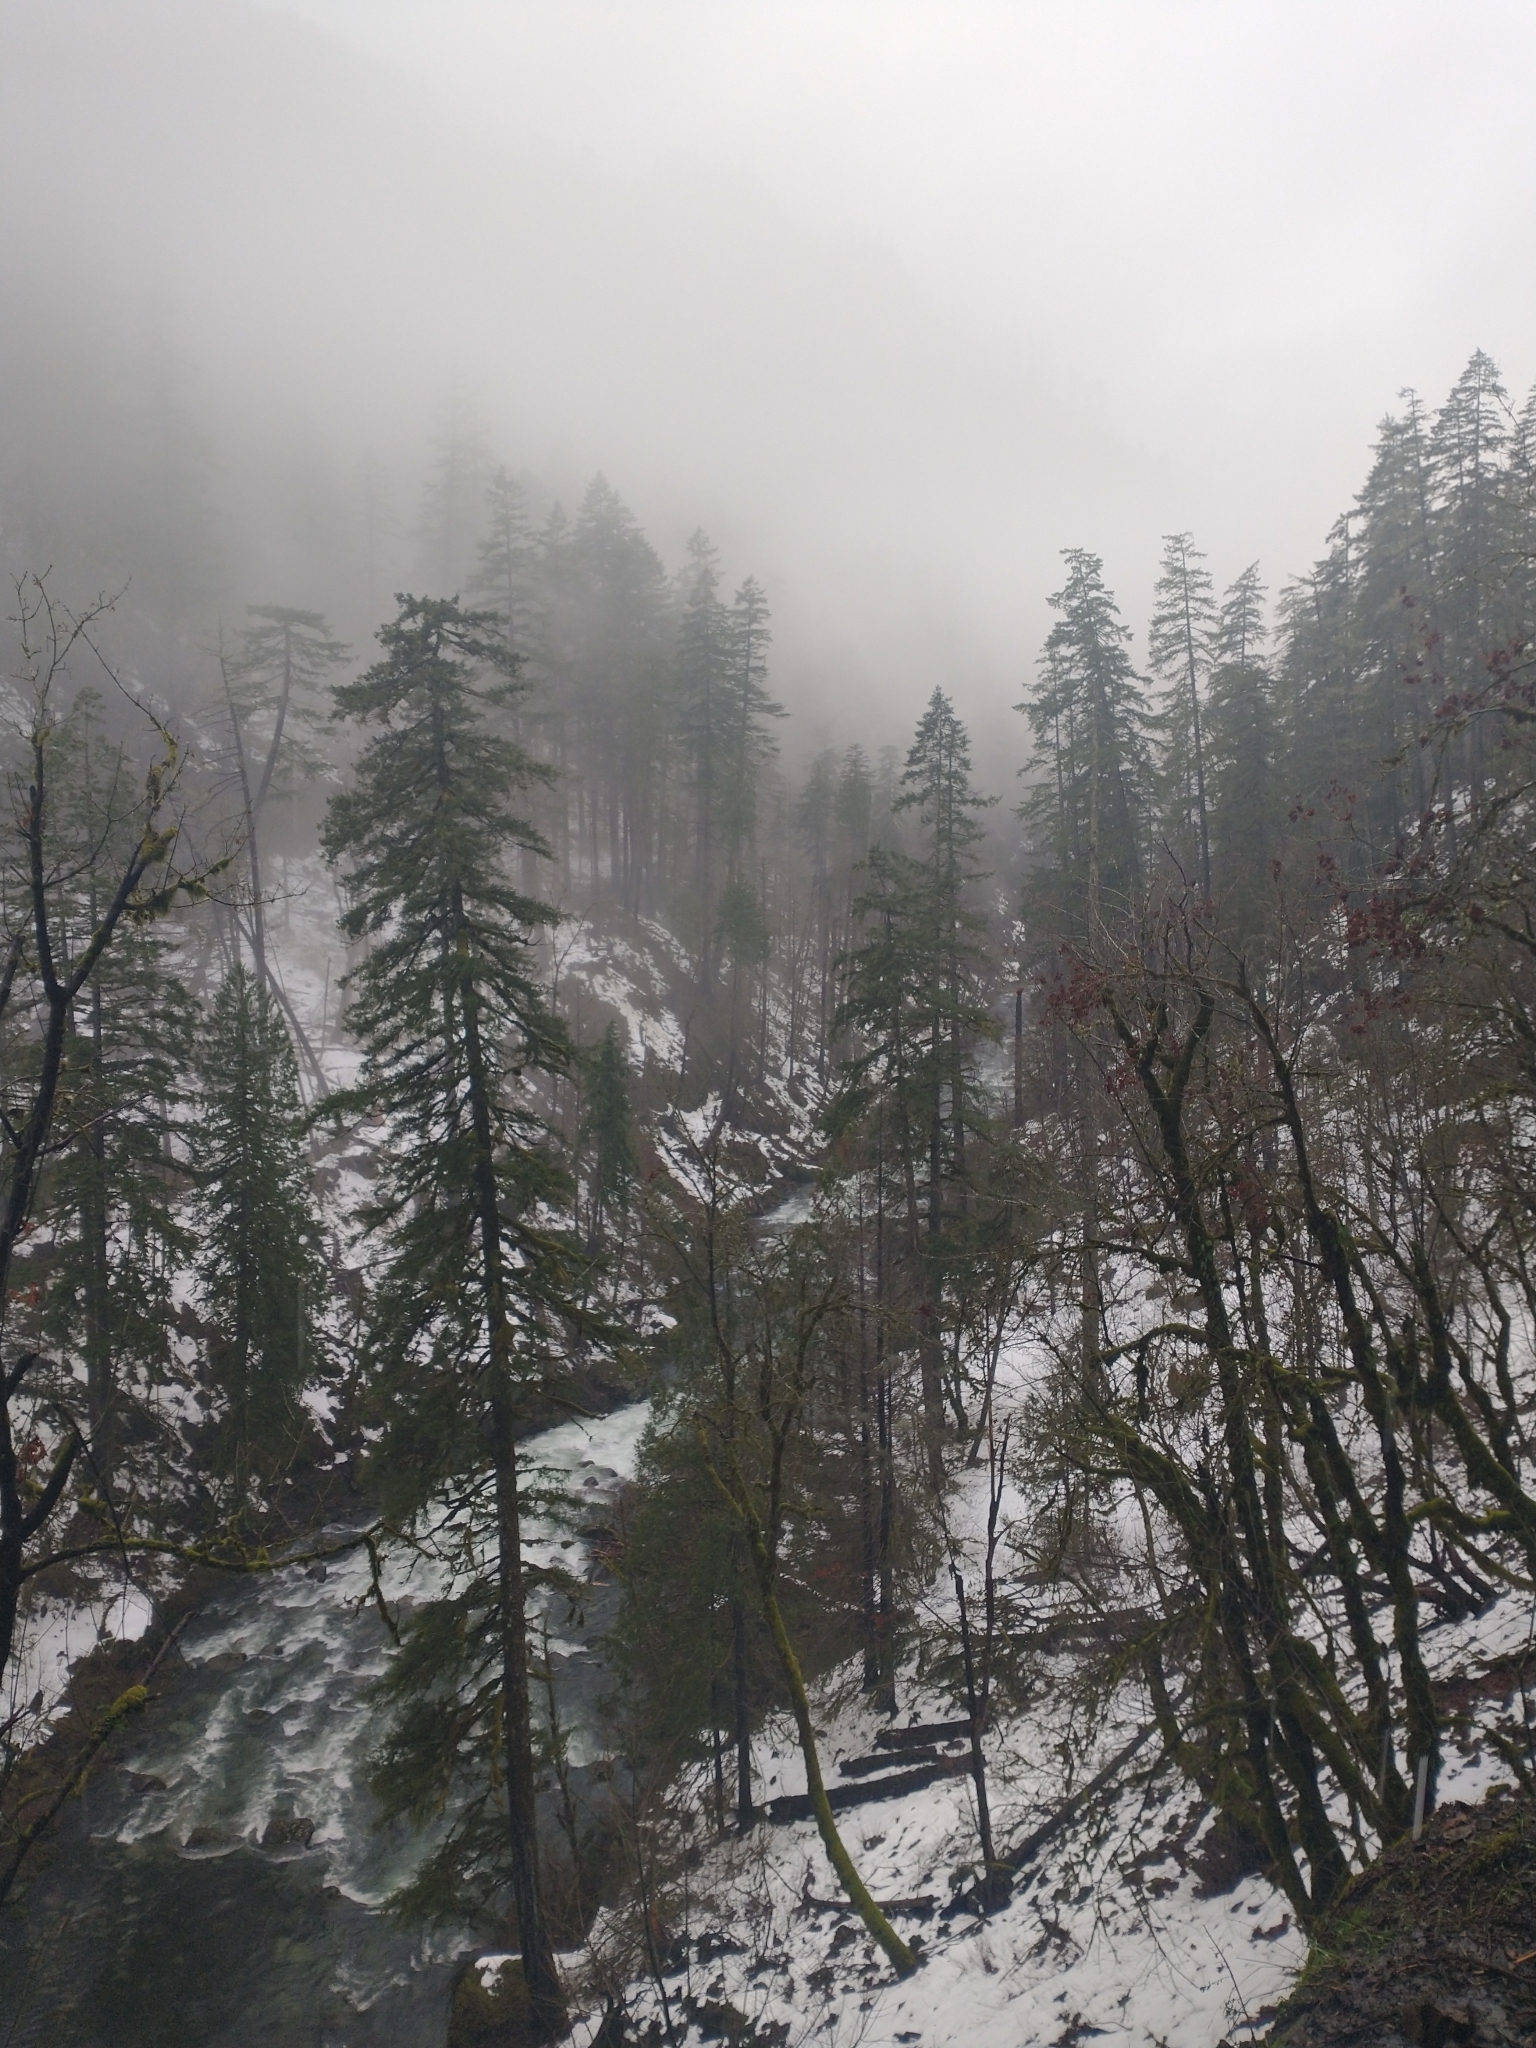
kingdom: Plantae
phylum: Tracheophyta
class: Pinopsida
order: Pinales
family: Pinaceae
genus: Pseudotsuga
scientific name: Pseudotsuga menziesii
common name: Douglas fir
